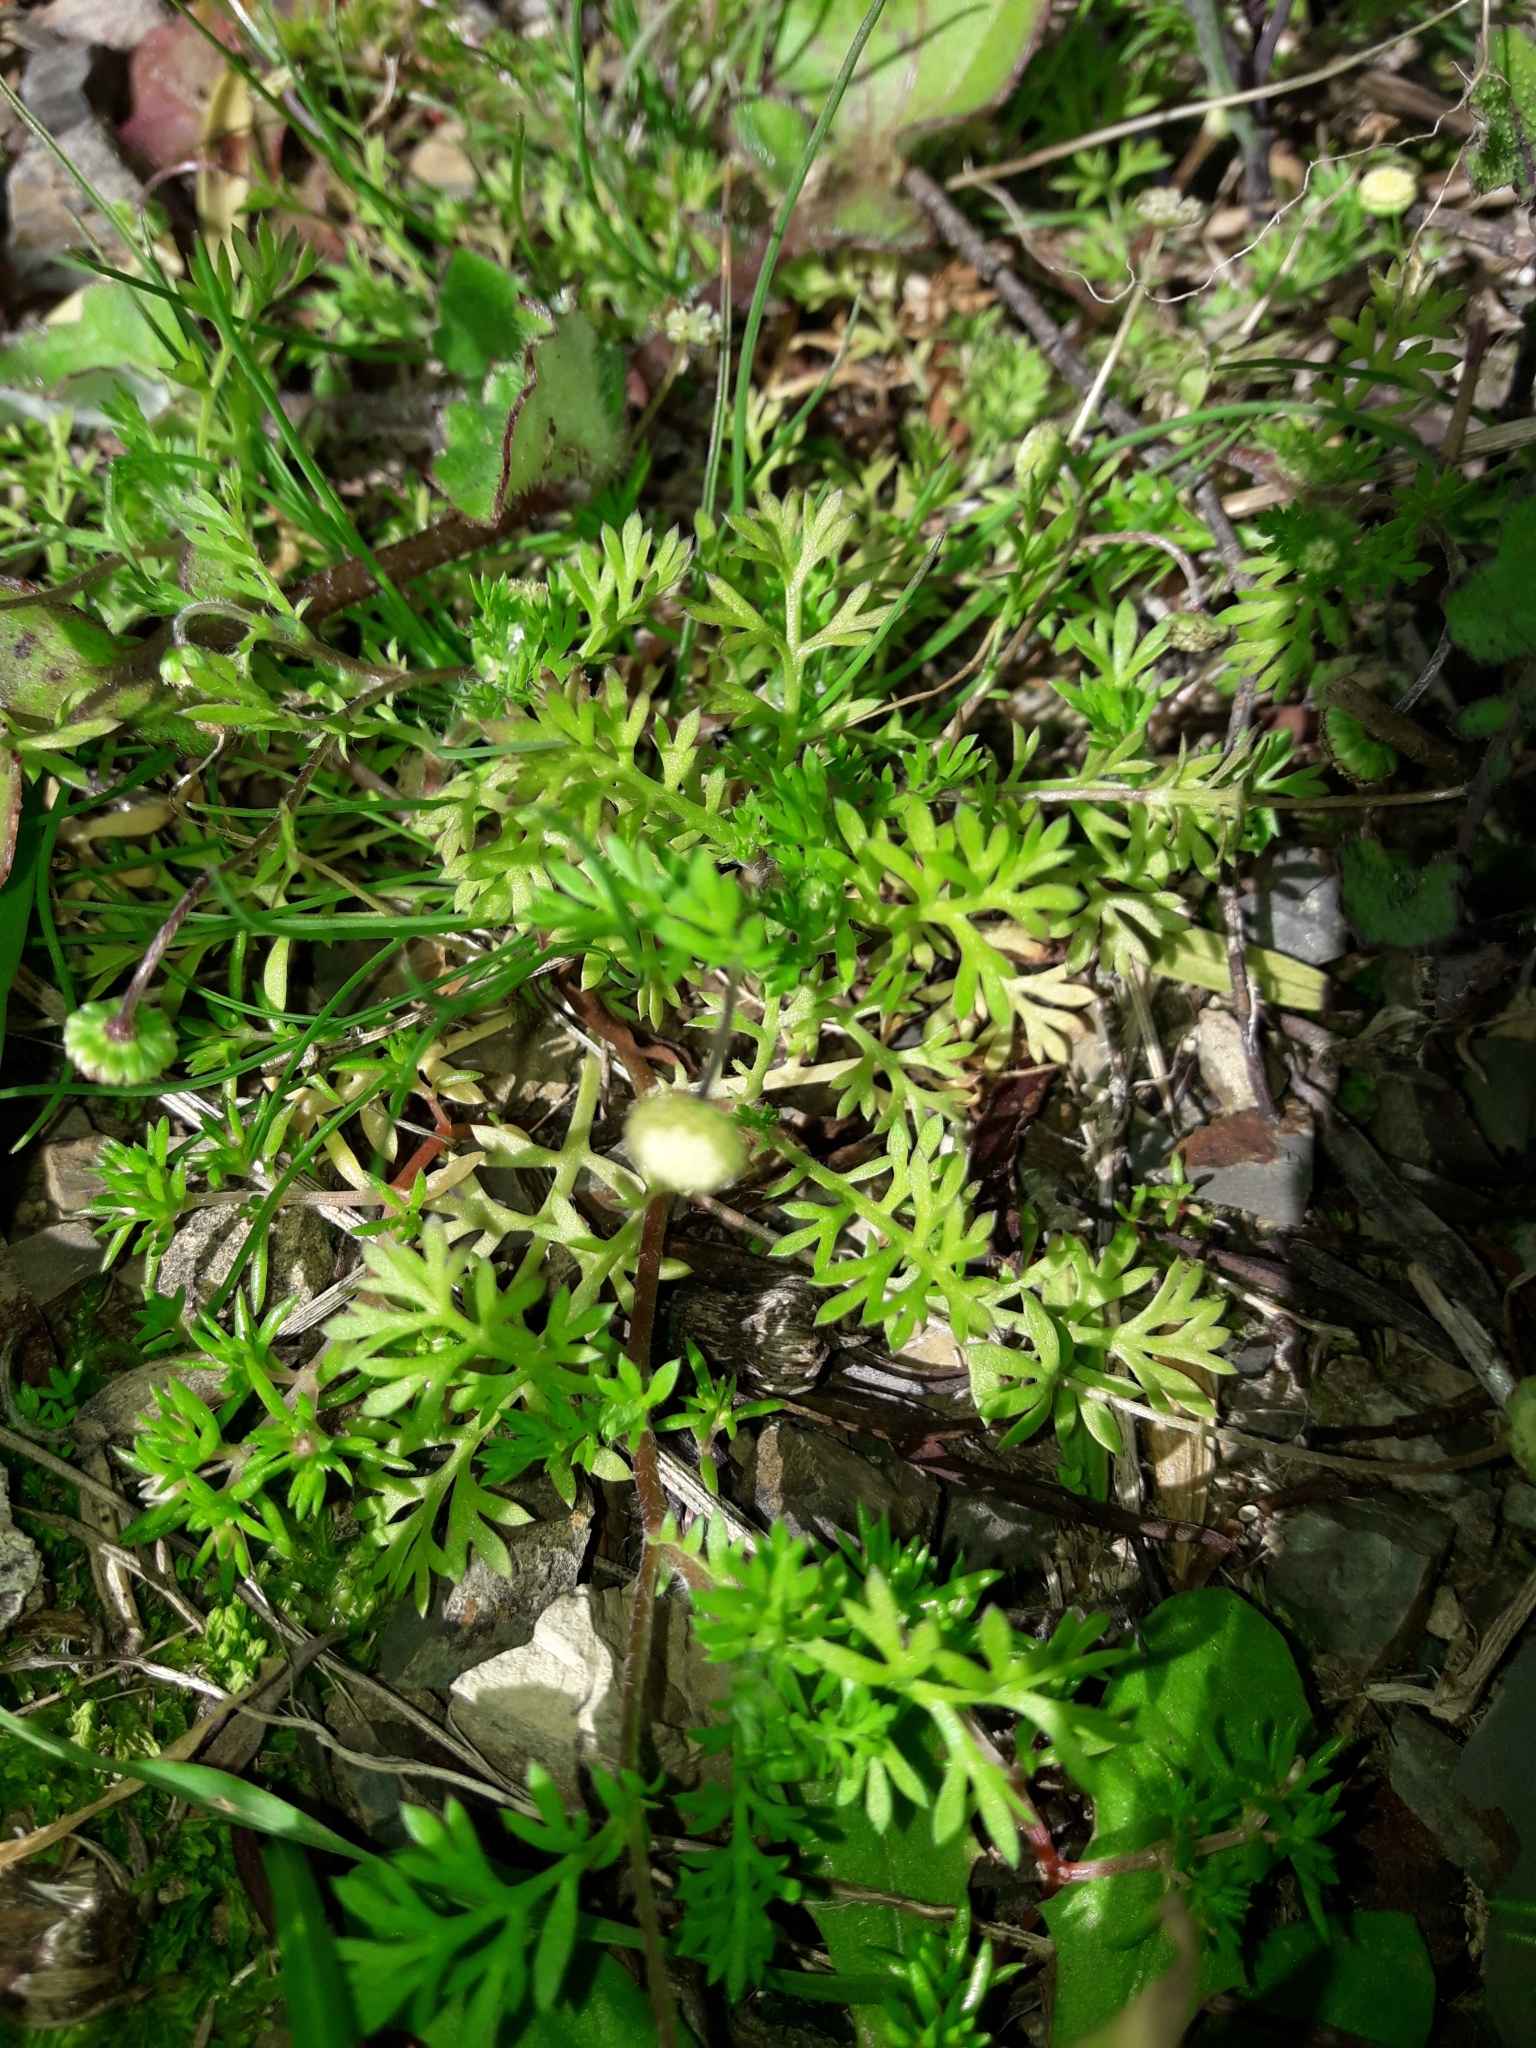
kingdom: Plantae
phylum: Tracheophyta
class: Magnoliopsida
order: Asterales
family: Asteraceae
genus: Cotula
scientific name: Cotula australis
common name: Australian waterbuttons
